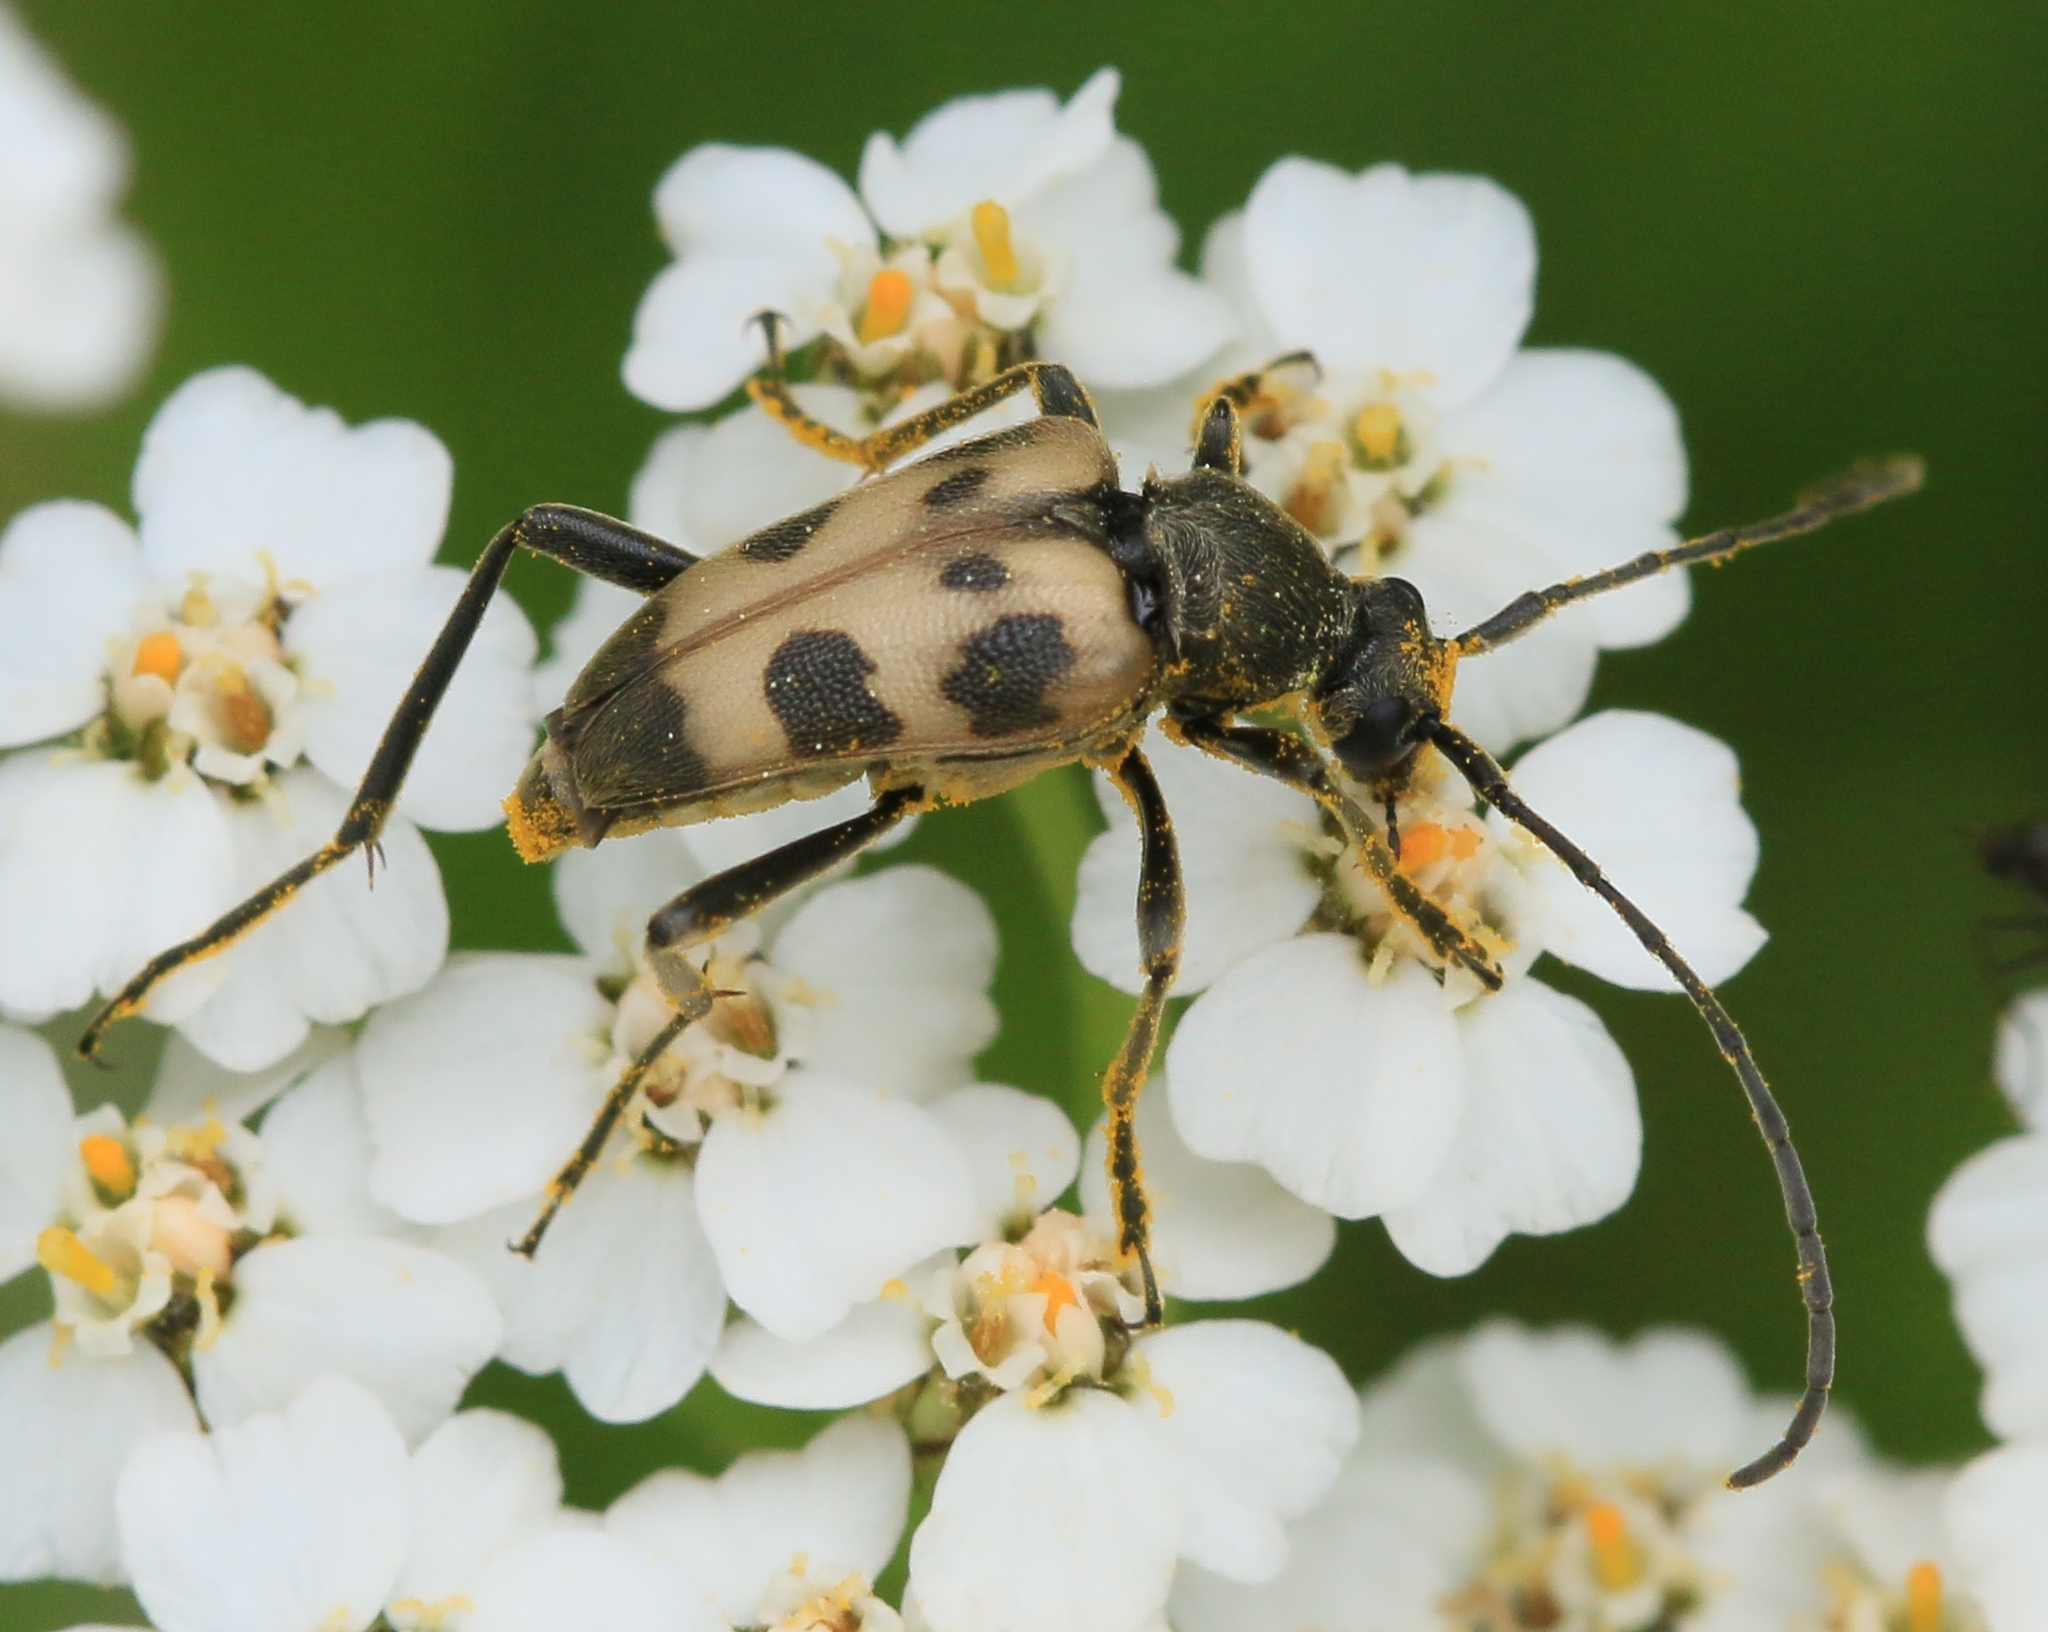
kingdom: Animalia
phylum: Arthropoda
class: Insecta
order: Coleoptera
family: Cerambycidae
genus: Pachytodes
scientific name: Pachytodes cerambyciformis
